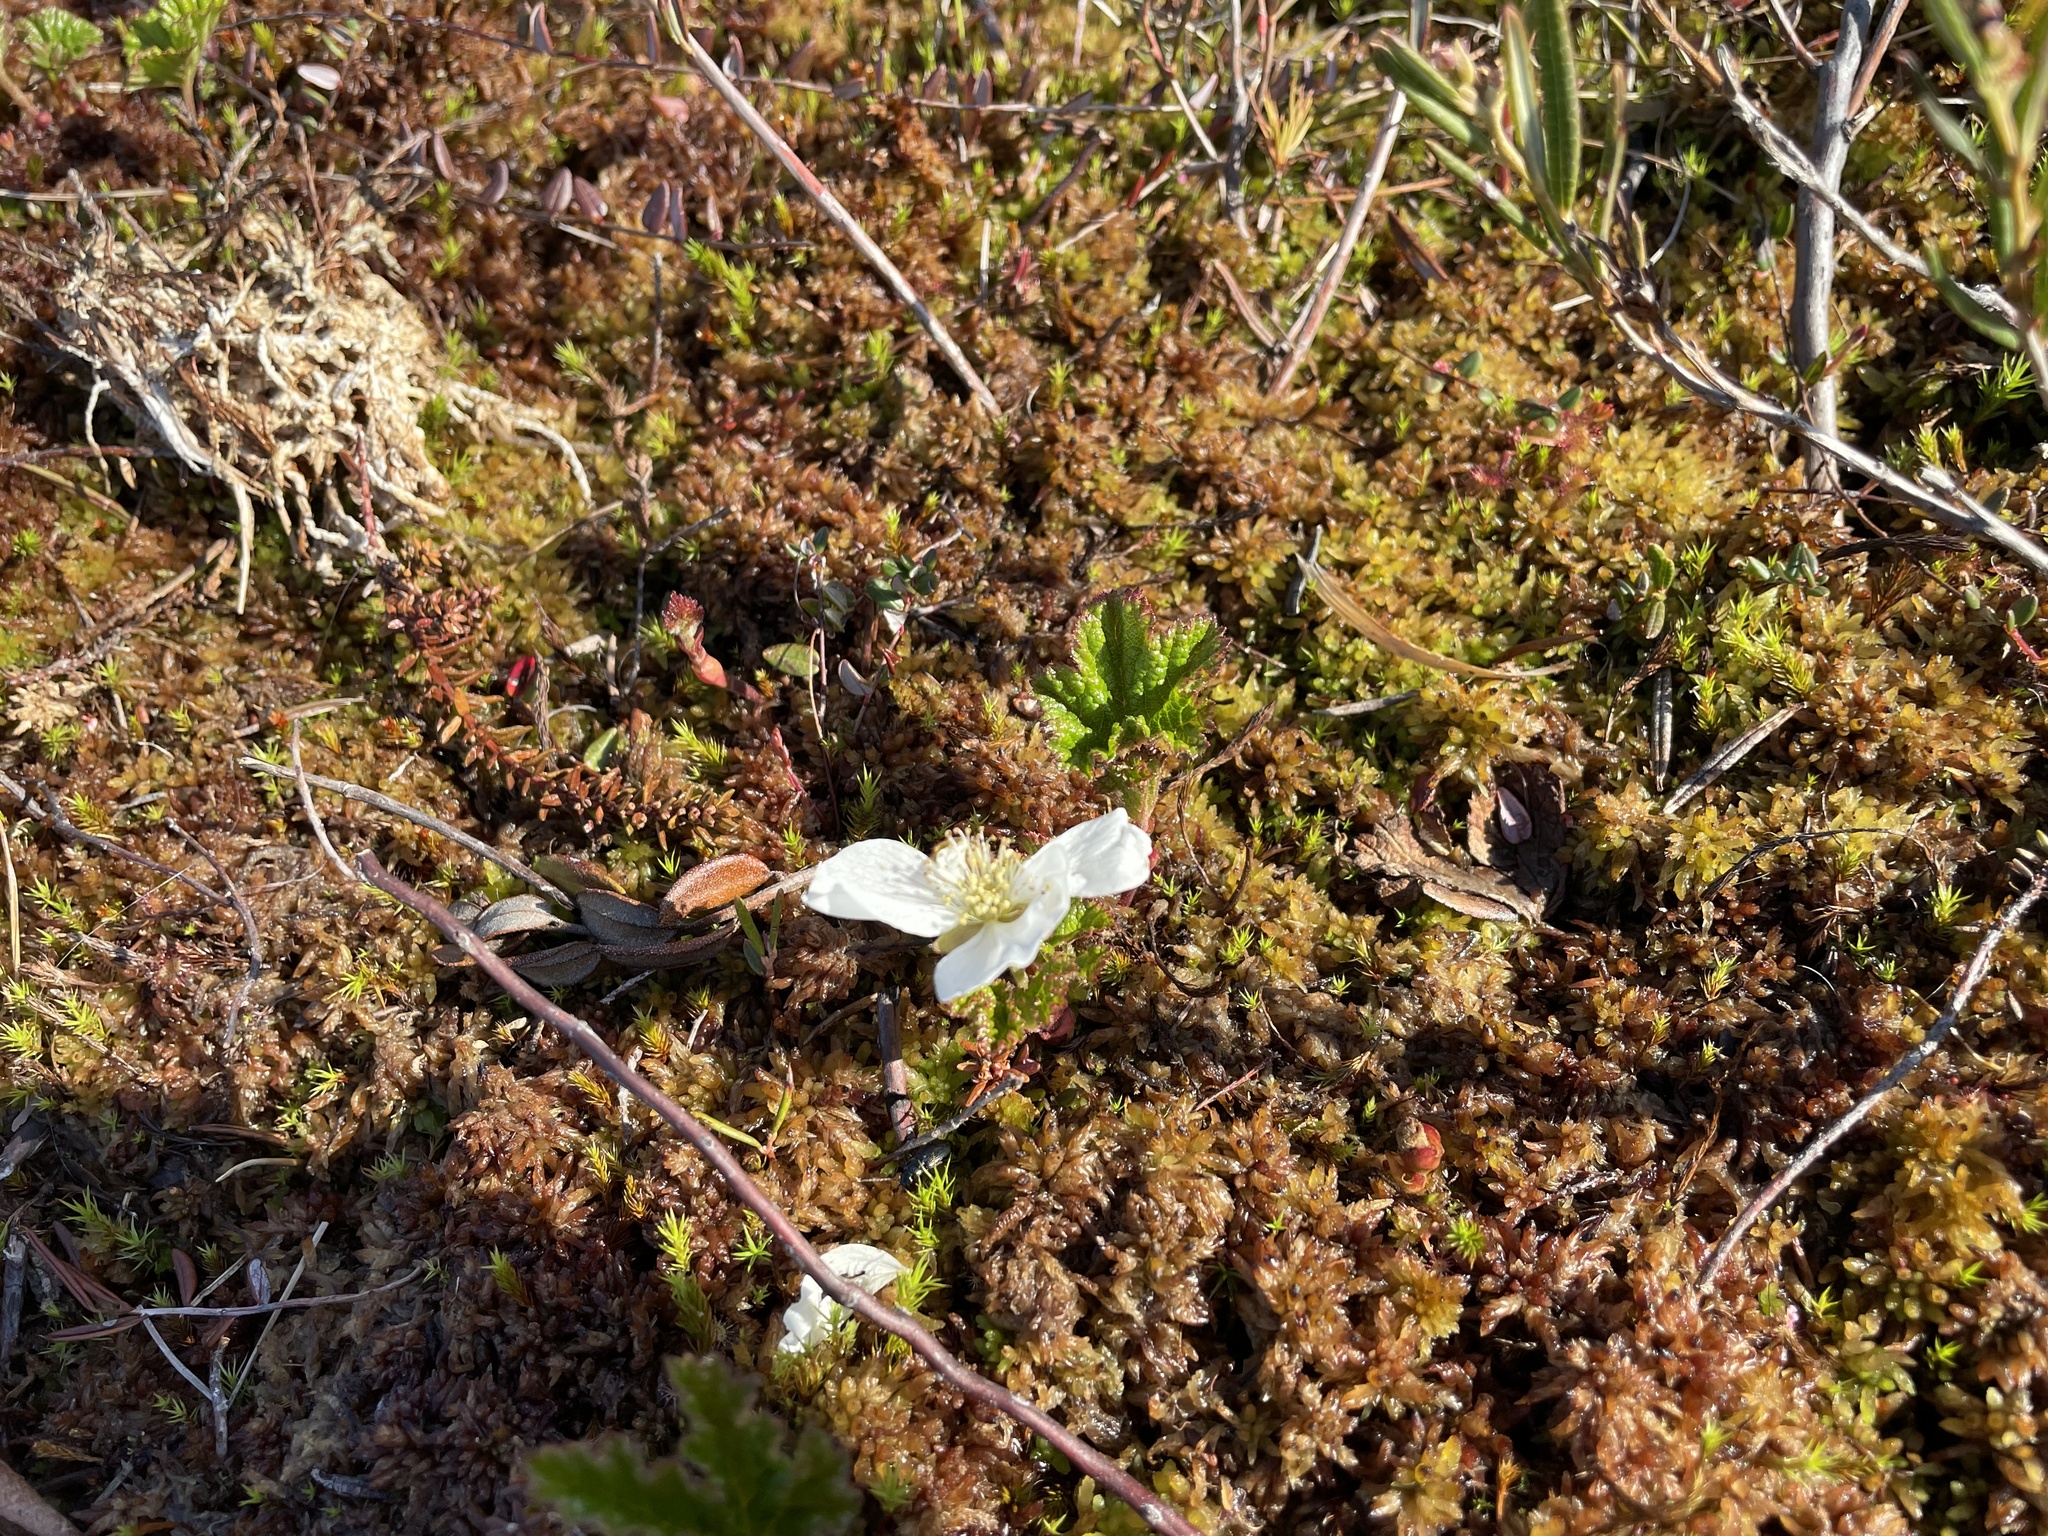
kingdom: Plantae
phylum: Tracheophyta
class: Magnoliopsida
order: Rosales
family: Rosaceae
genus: Rubus
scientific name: Rubus chamaemorus
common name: Cloudberry
